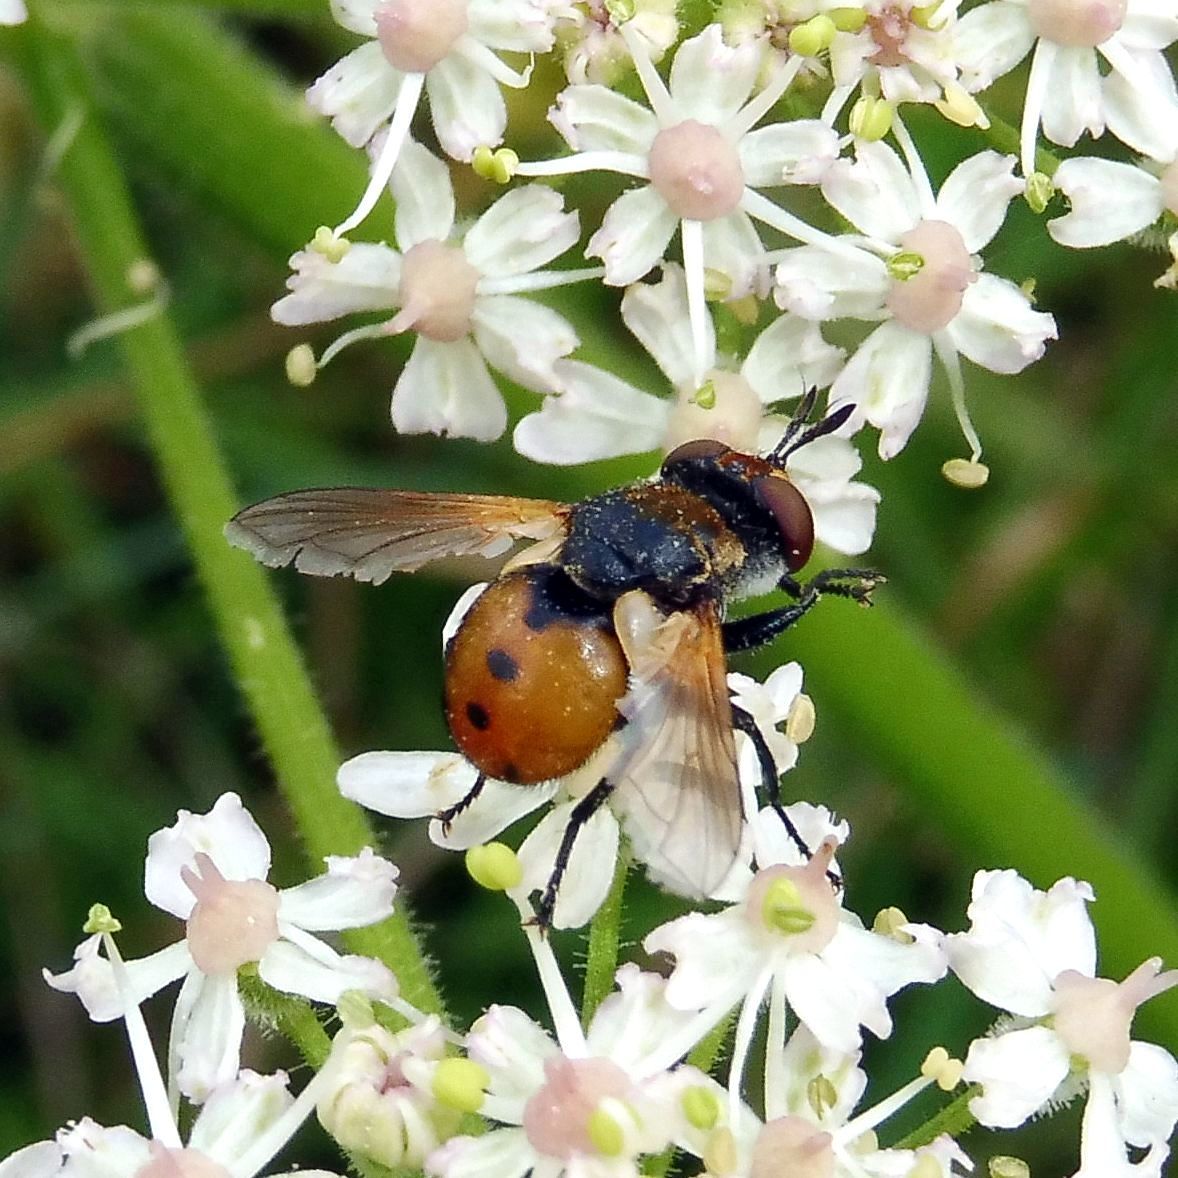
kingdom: Animalia
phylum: Arthropoda
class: Insecta
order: Diptera
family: Tachinidae
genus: Gymnosoma
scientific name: Gymnosoma rotundatum
